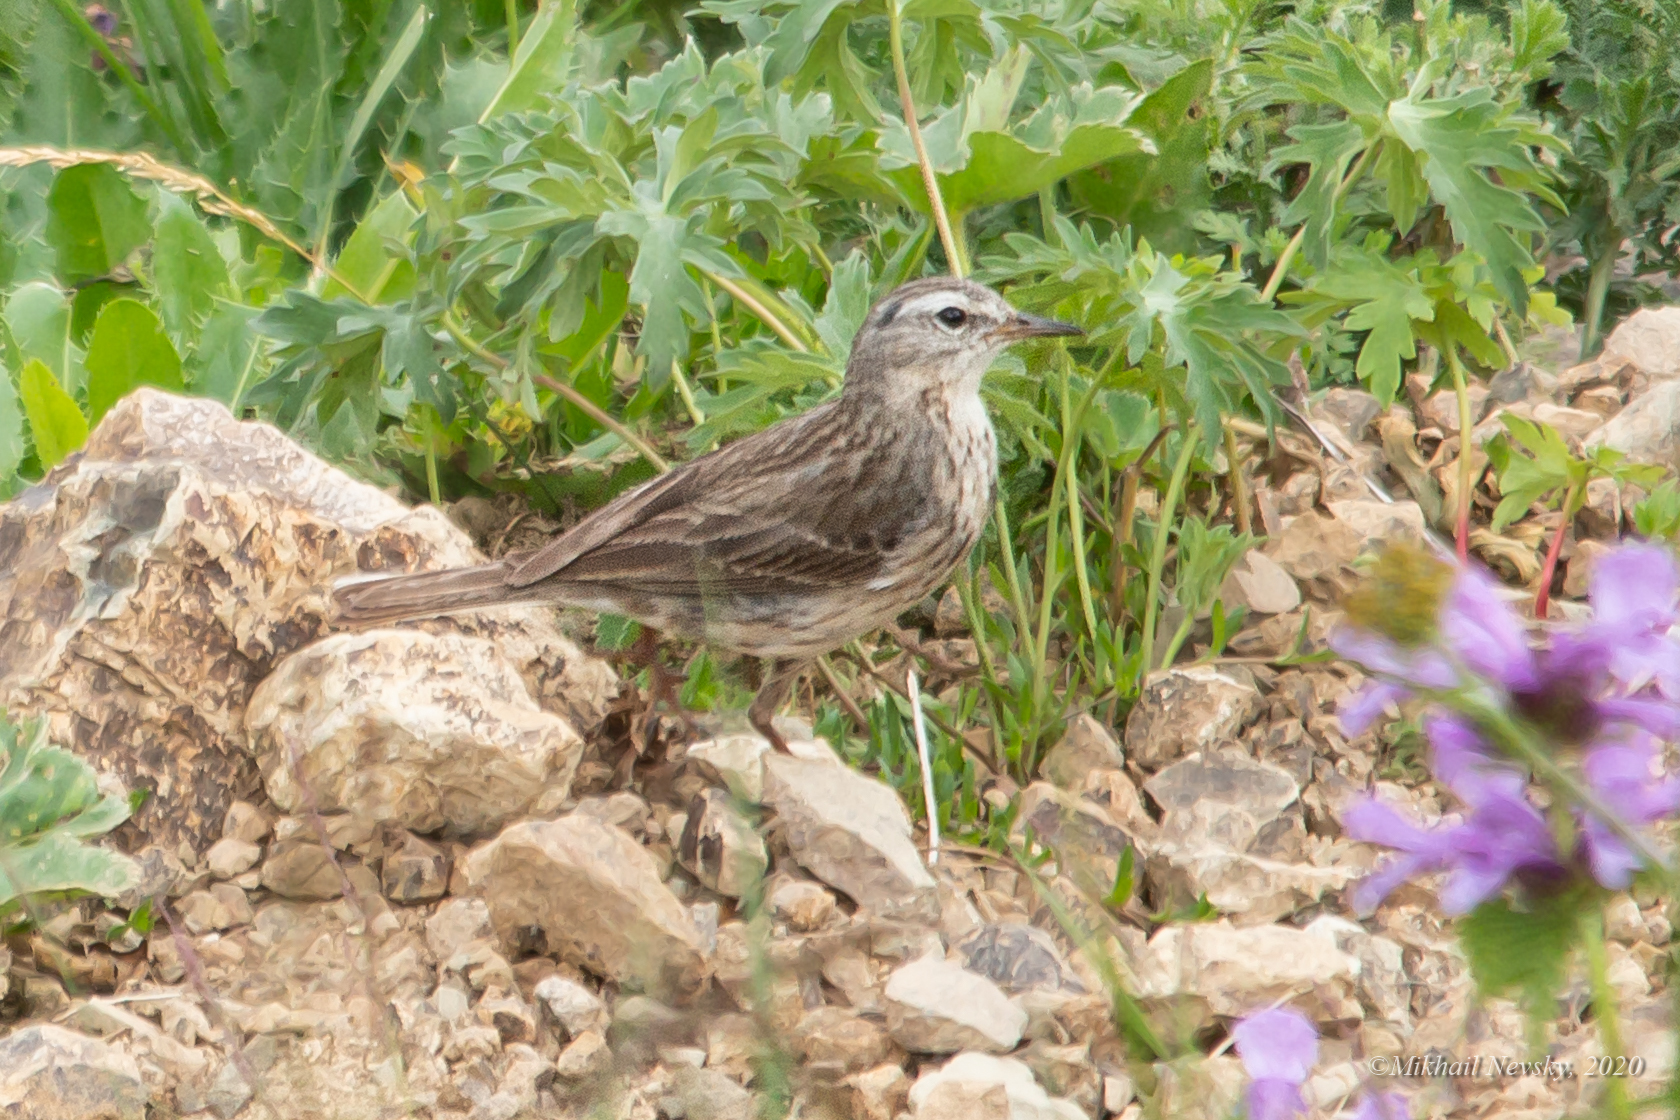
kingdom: Animalia
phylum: Chordata
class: Aves
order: Passeriformes
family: Motacillidae
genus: Anthus
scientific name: Anthus spinoletta
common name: Water pipit
